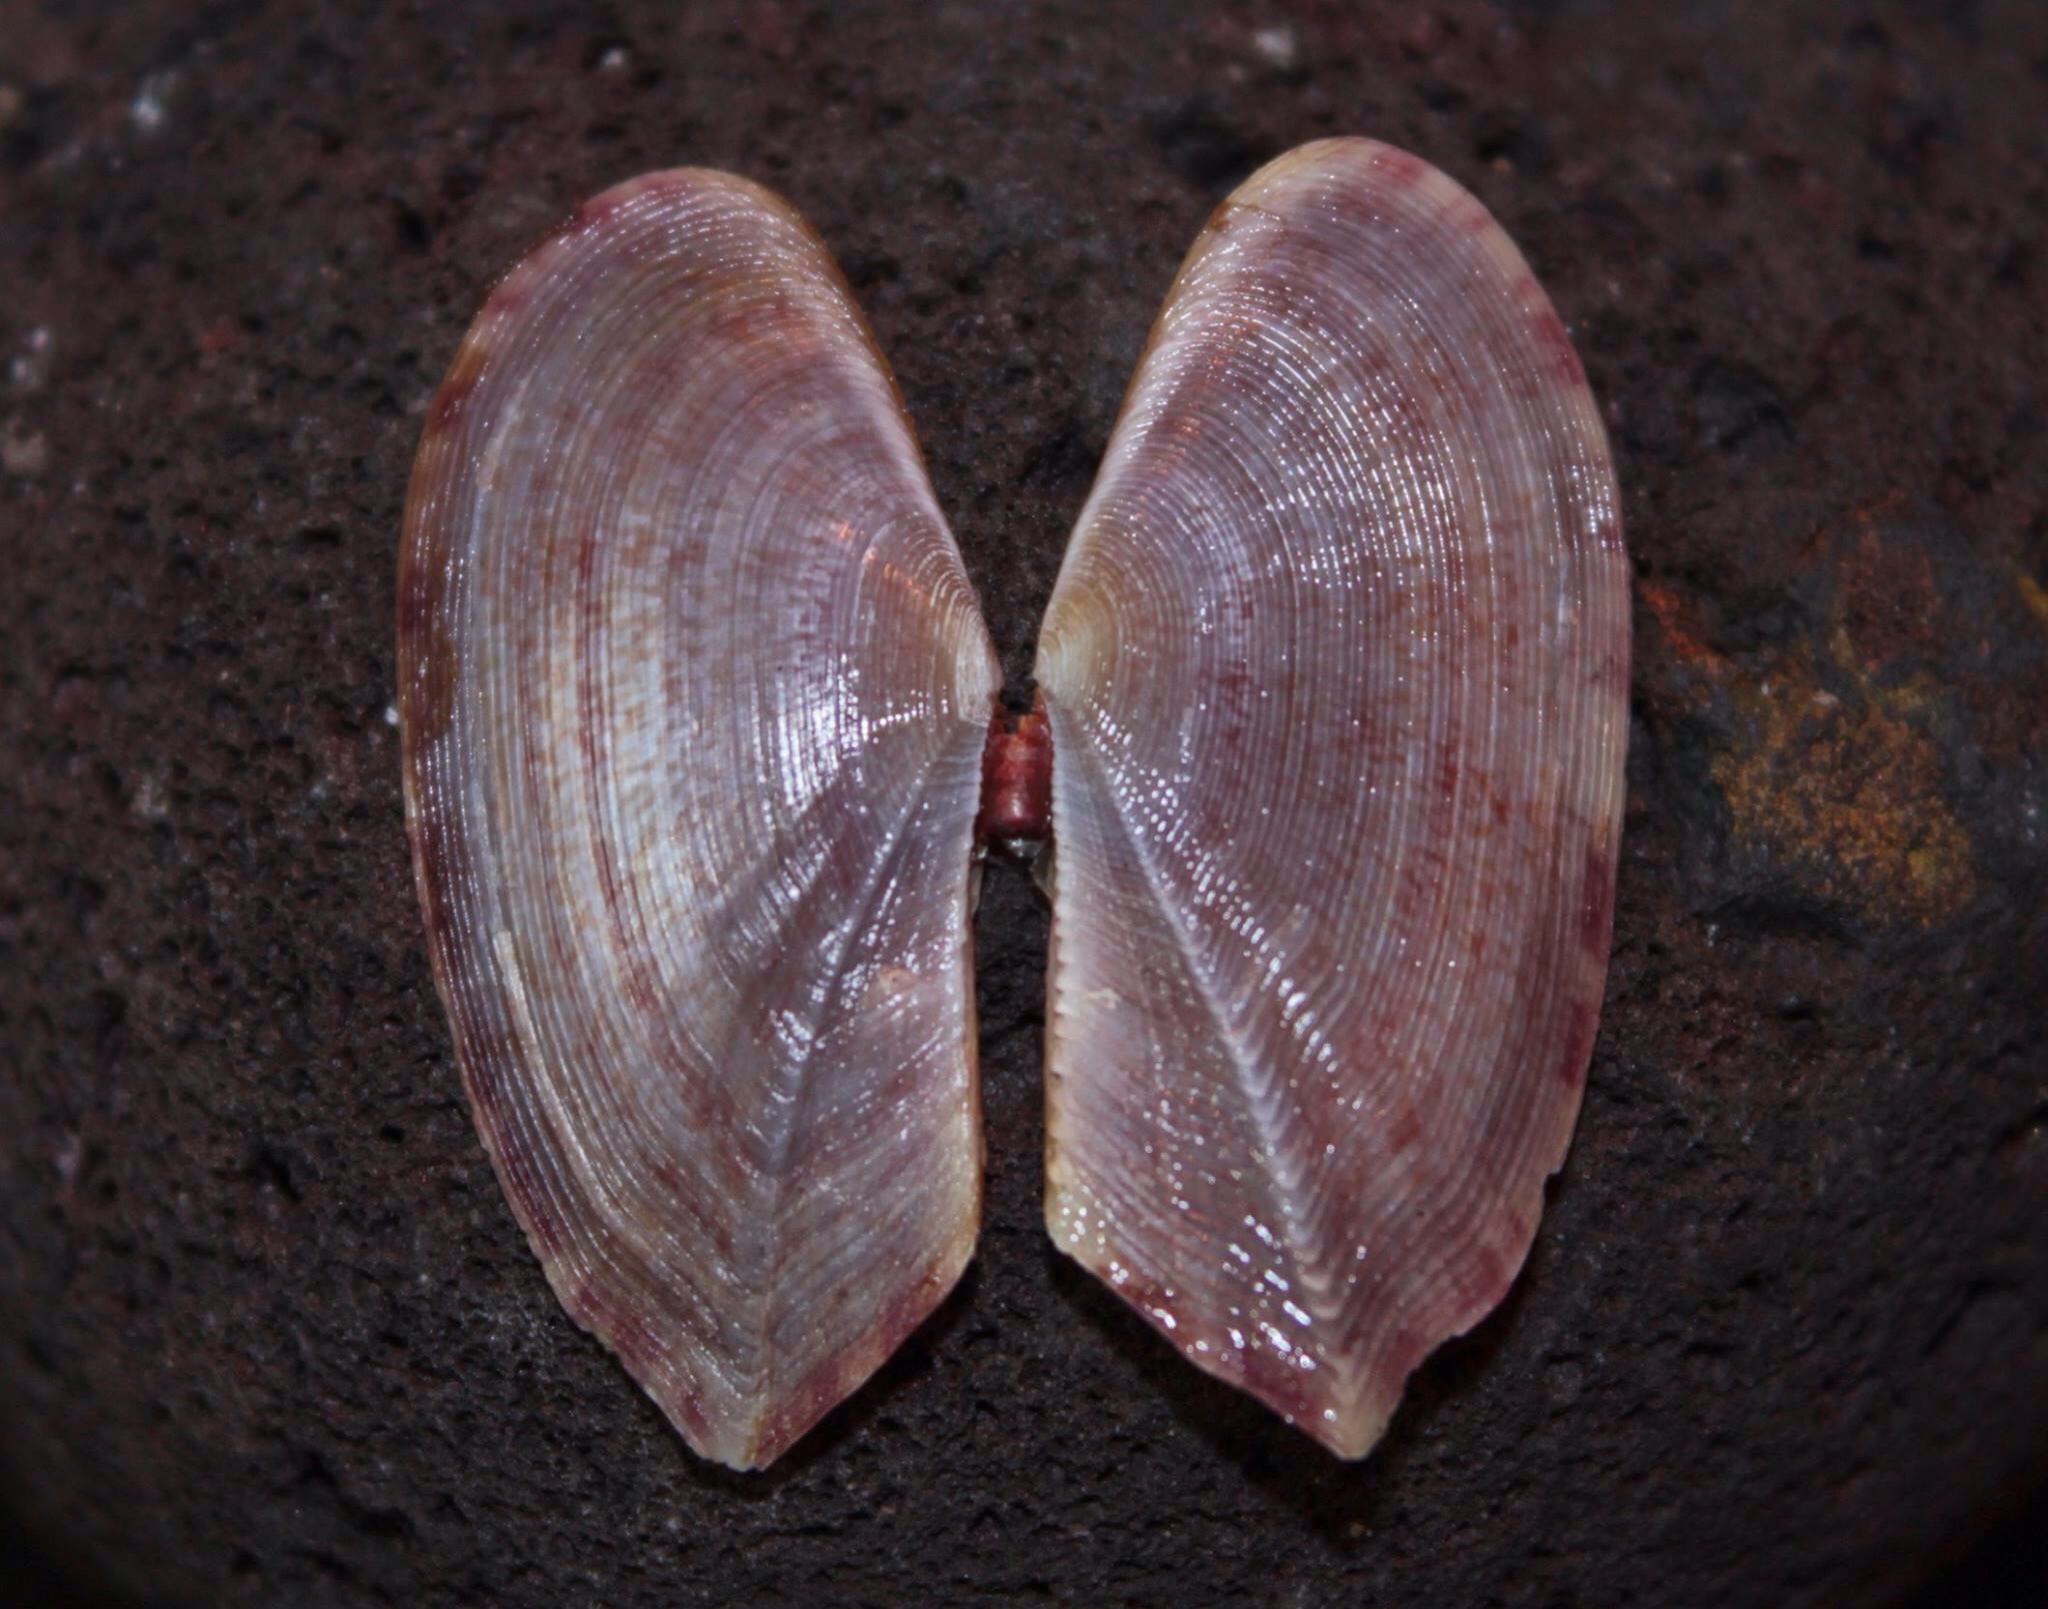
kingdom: Animalia
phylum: Mollusca
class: Bivalvia
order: Cardiida
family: Psammobiidae
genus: Gari
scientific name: Gari fervensis
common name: Faroe sunset shell
